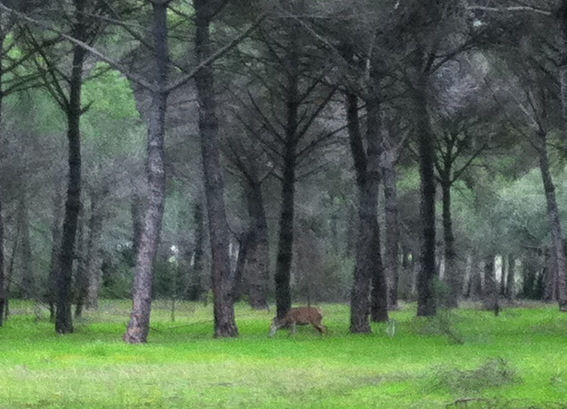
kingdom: Animalia
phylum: Chordata
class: Mammalia
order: Artiodactyla
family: Cervidae
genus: Cervus
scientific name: Cervus elaphus
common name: Red deer
